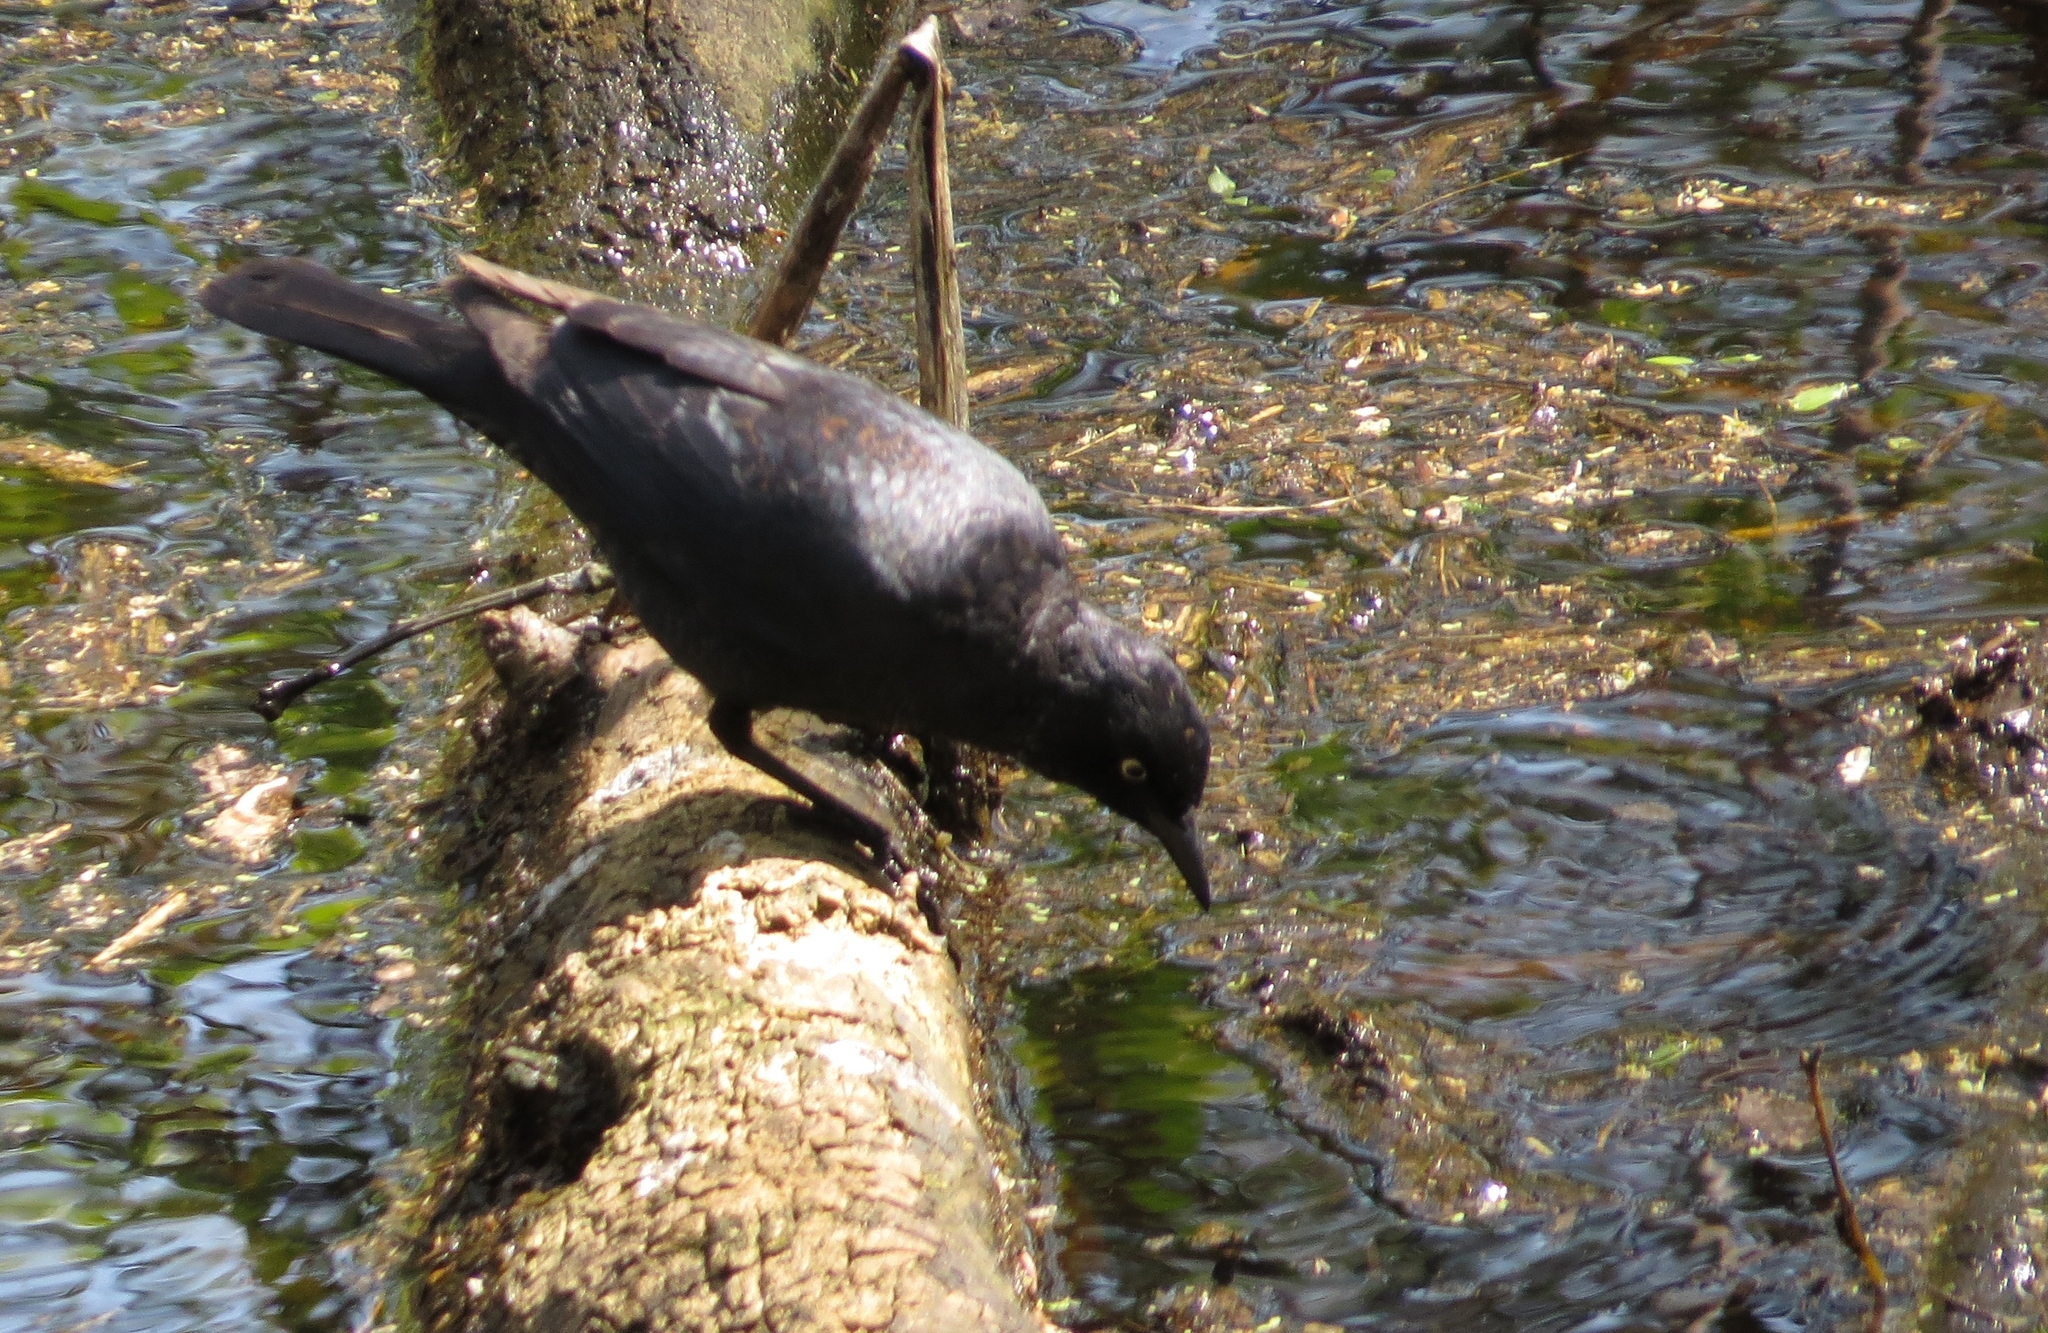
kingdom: Animalia
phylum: Chordata
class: Aves
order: Passeriformes
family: Icteridae
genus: Euphagus
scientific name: Euphagus carolinus
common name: Rusty blackbird
